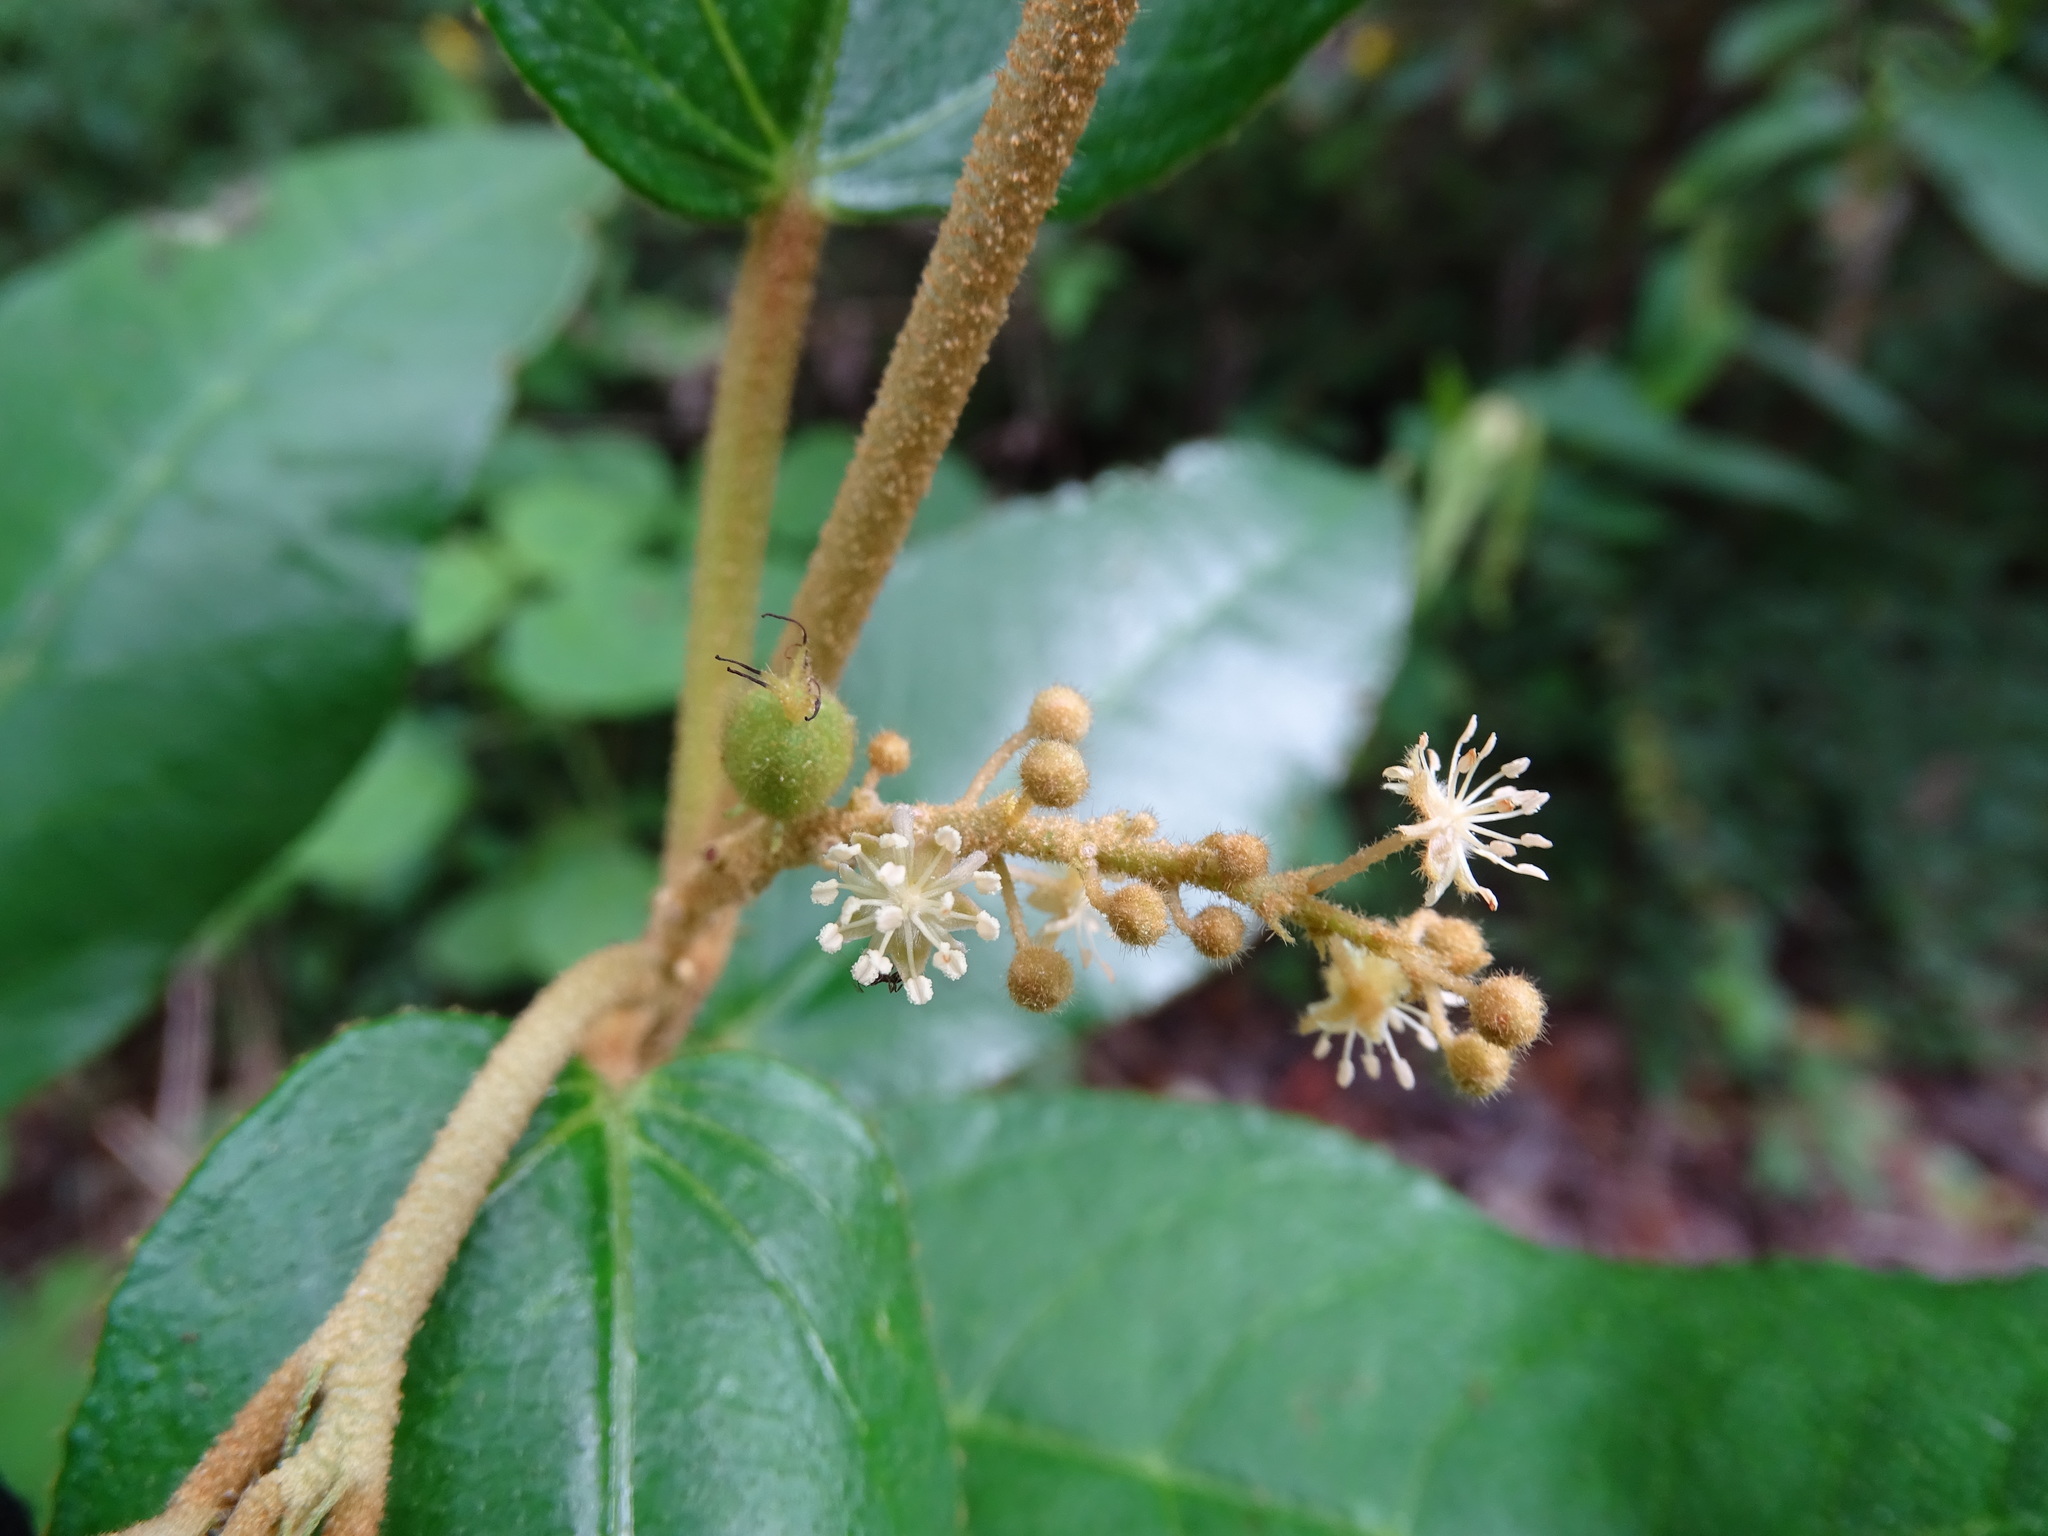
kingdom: Plantae
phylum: Tracheophyta
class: Magnoliopsida
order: Malpighiales
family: Euphorbiaceae
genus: Croton
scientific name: Croton peraeruginosus
